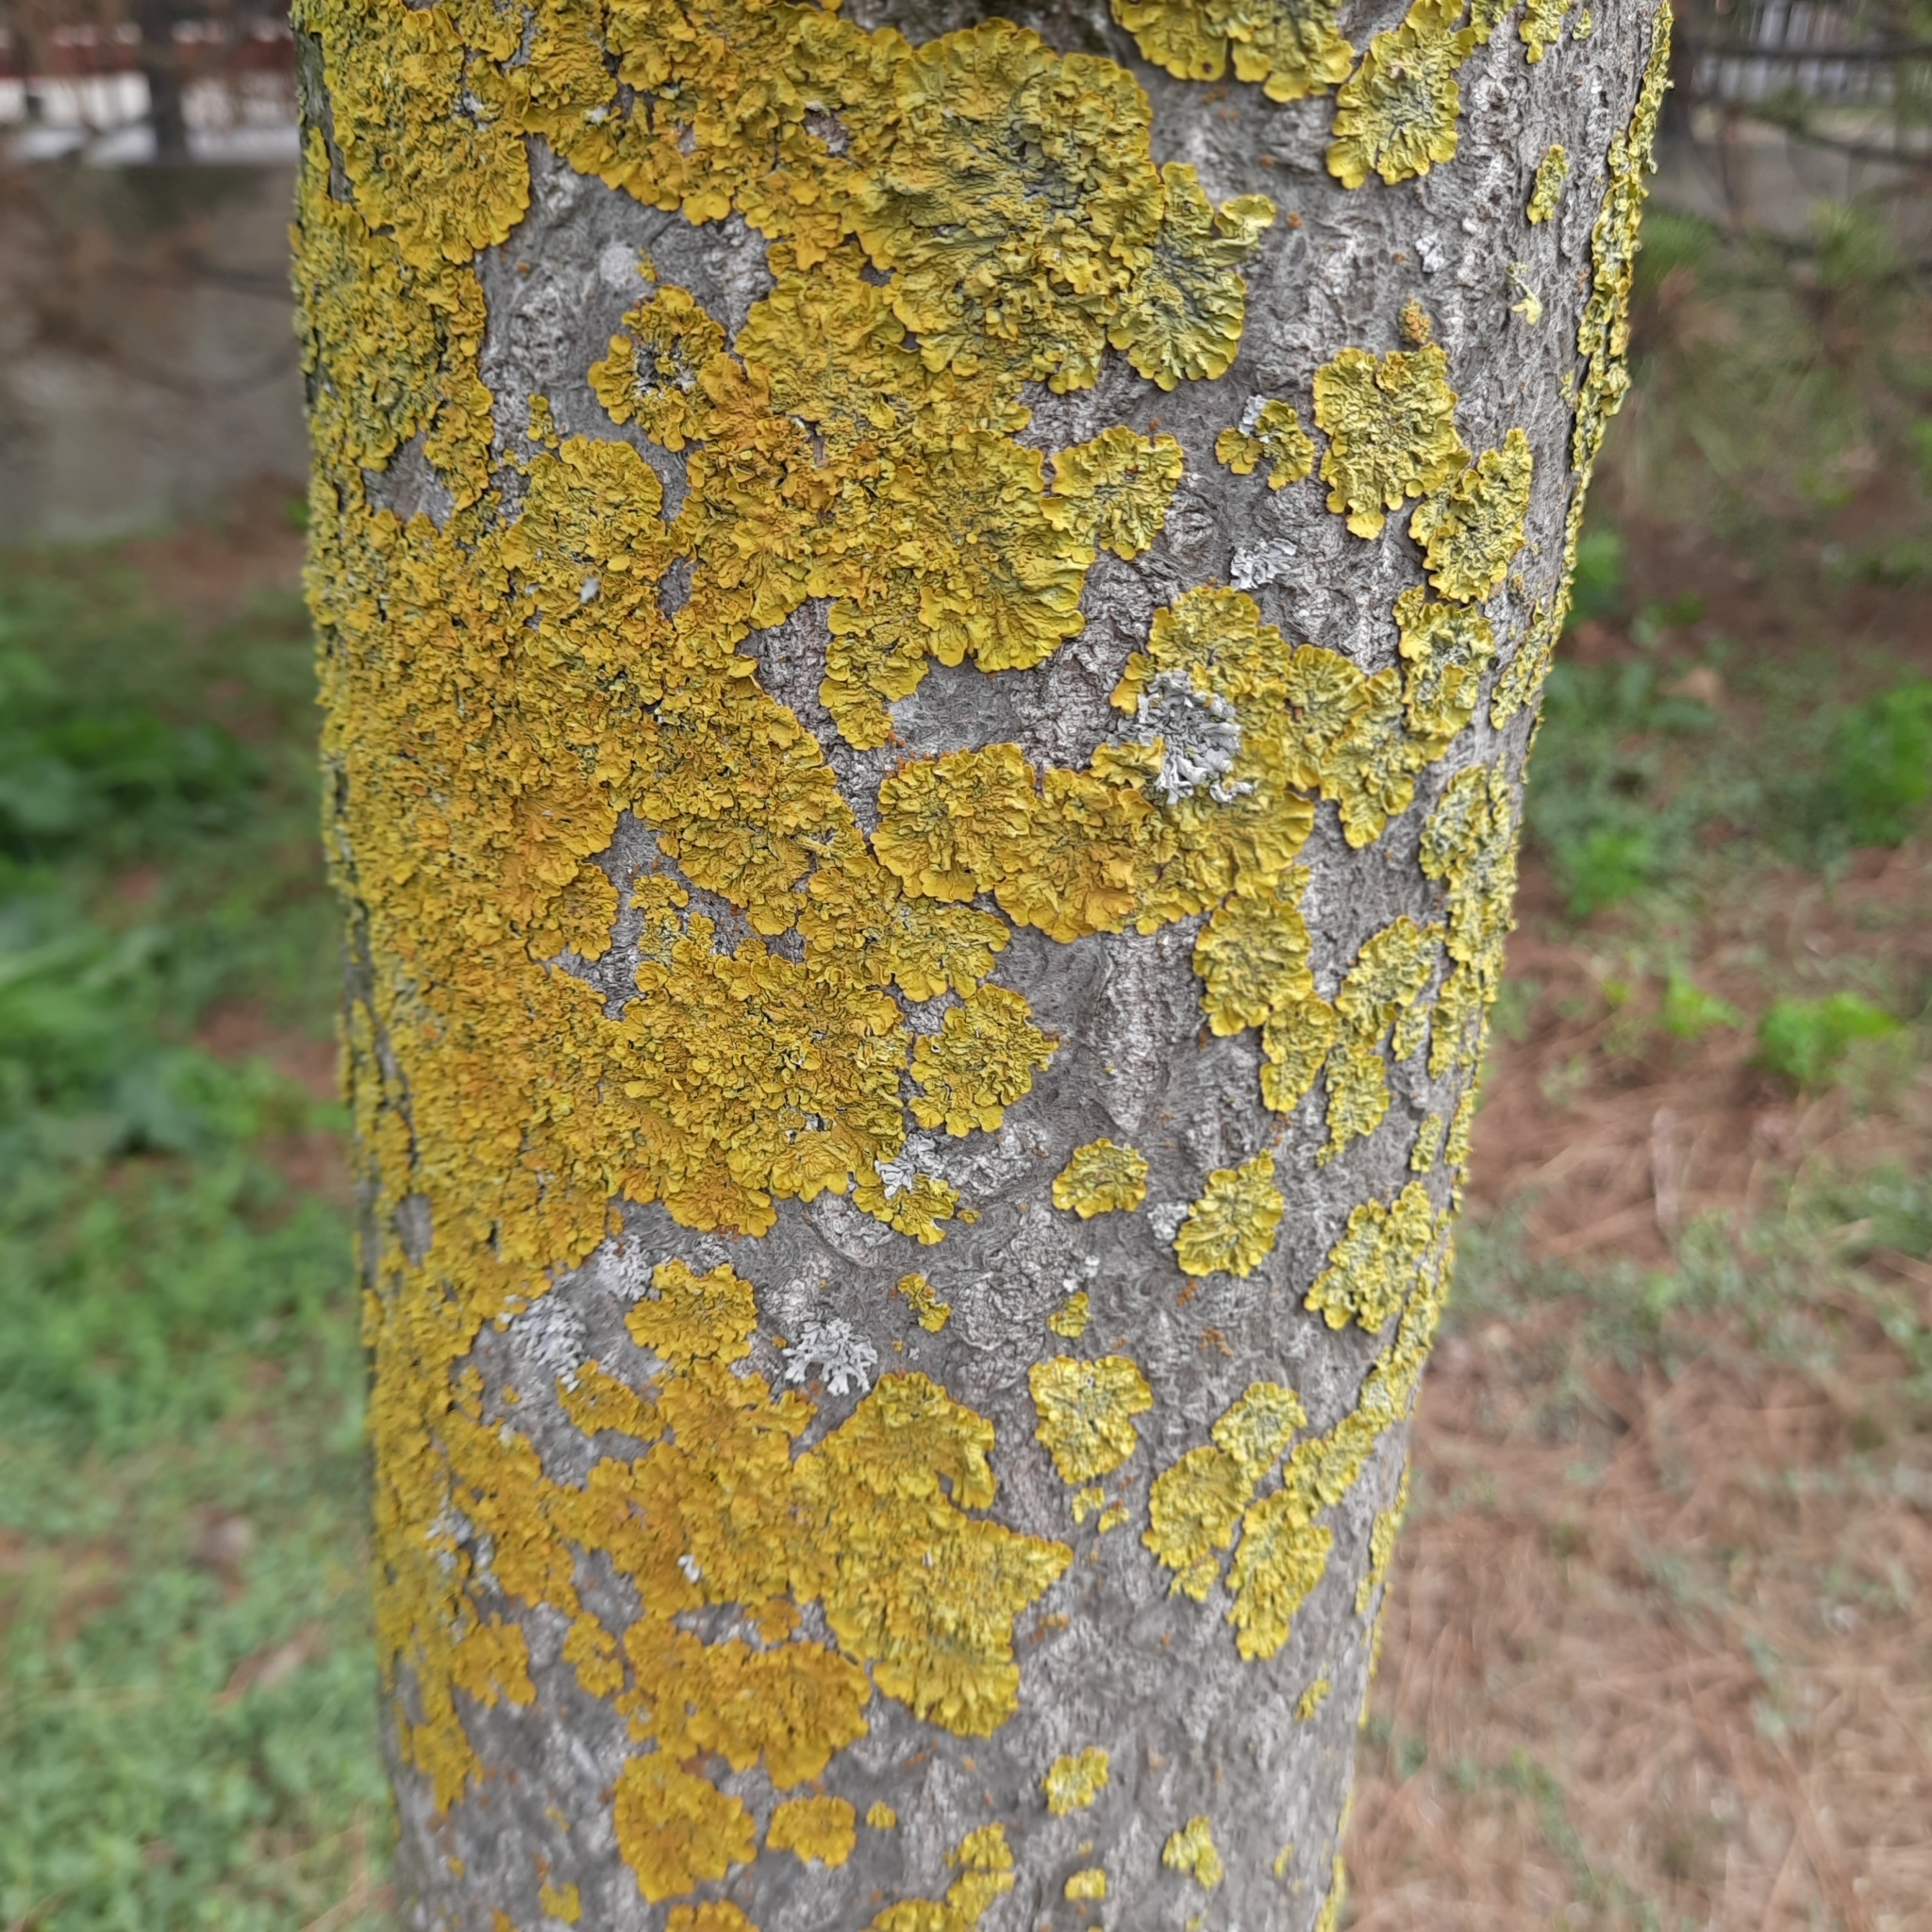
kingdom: Fungi
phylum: Ascomycota
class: Lecanoromycetes
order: Teloschistales
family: Teloschistaceae
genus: Xanthoria
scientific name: Xanthoria parietina
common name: Common orange lichen
